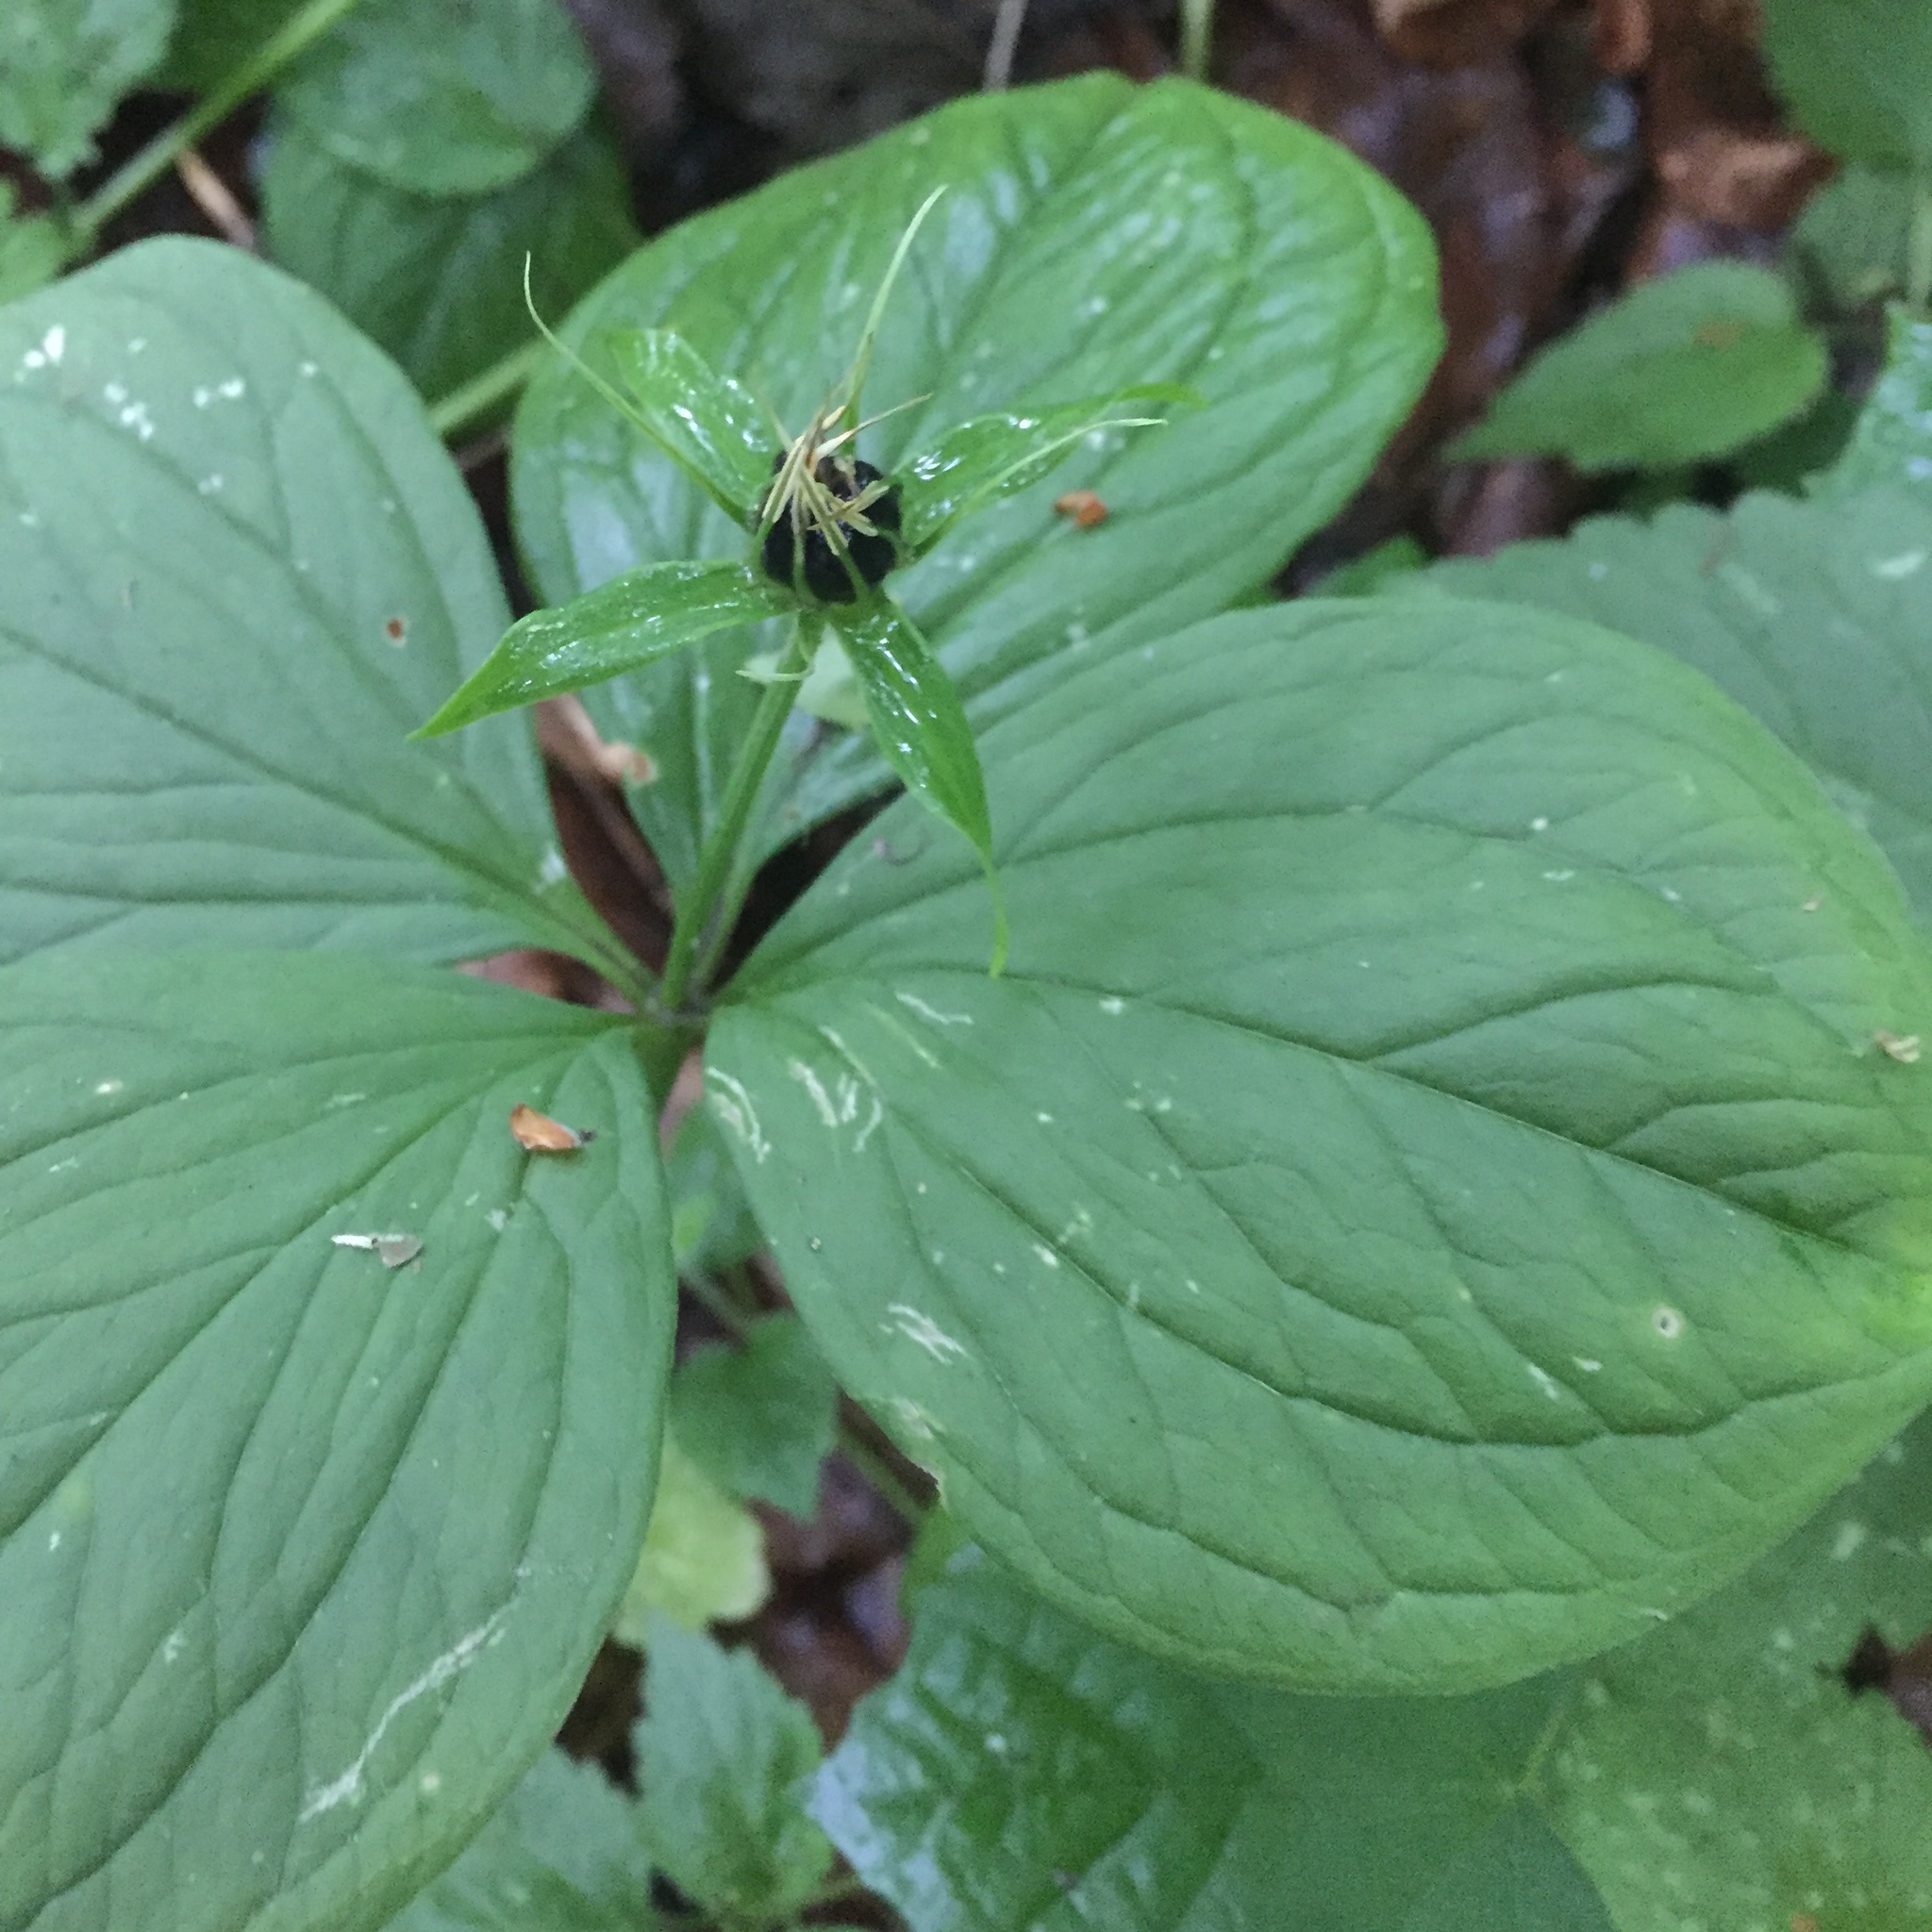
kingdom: Plantae
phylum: Tracheophyta
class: Liliopsida
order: Liliales
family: Melanthiaceae
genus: Paris
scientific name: Paris quadrifolia
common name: Herb-paris
